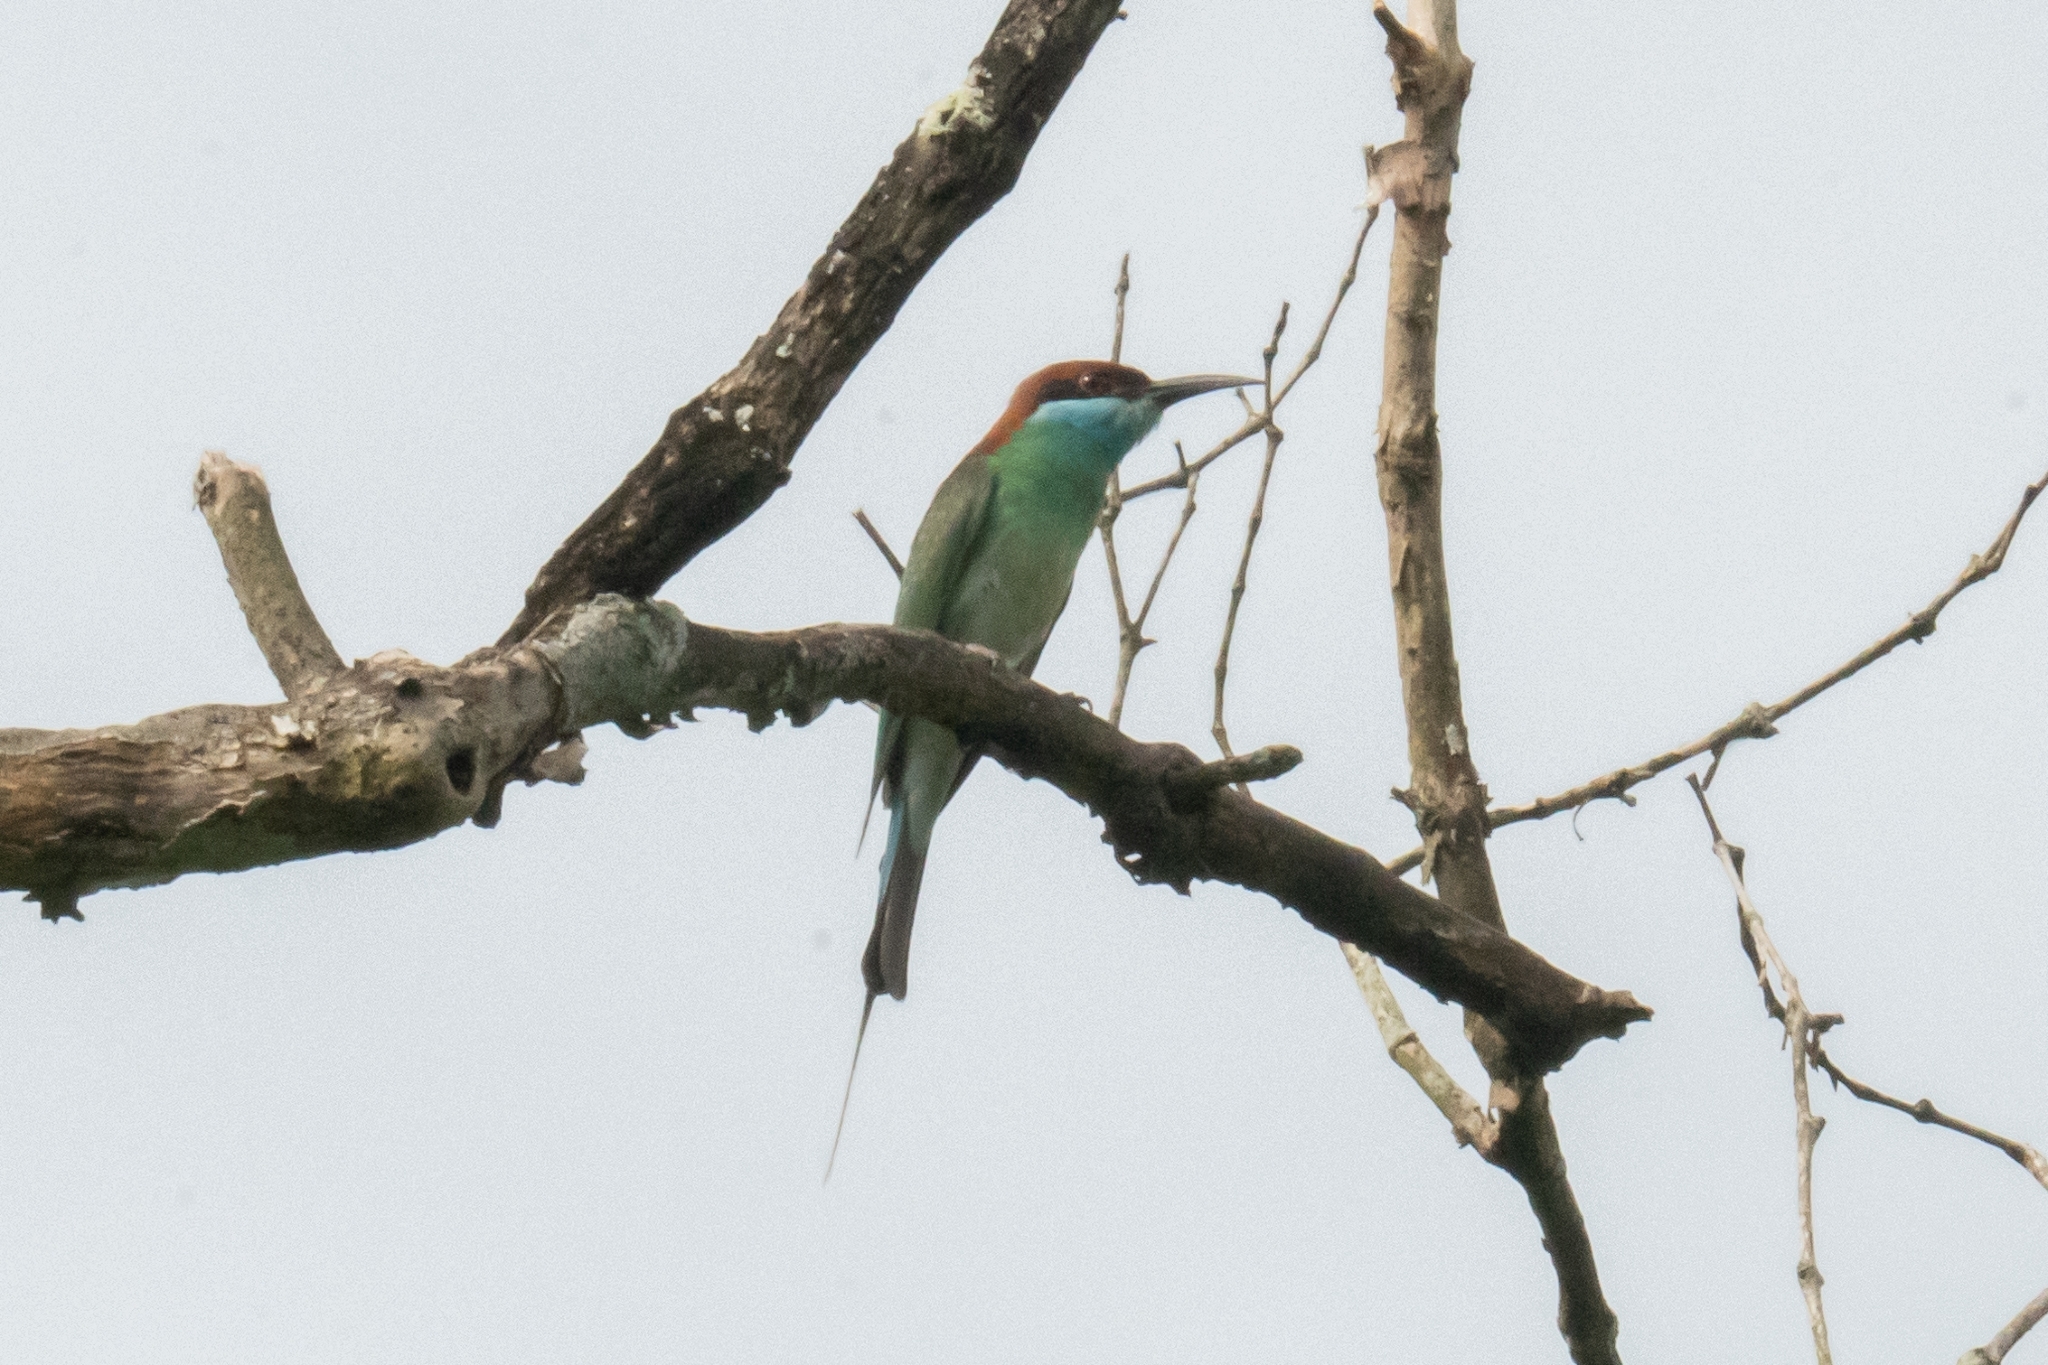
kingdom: Animalia
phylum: Chordata
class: Aves
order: Coraciiformes
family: Meropidae
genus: Merops
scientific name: Merops viridis
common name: Blue-throated bee-eater
